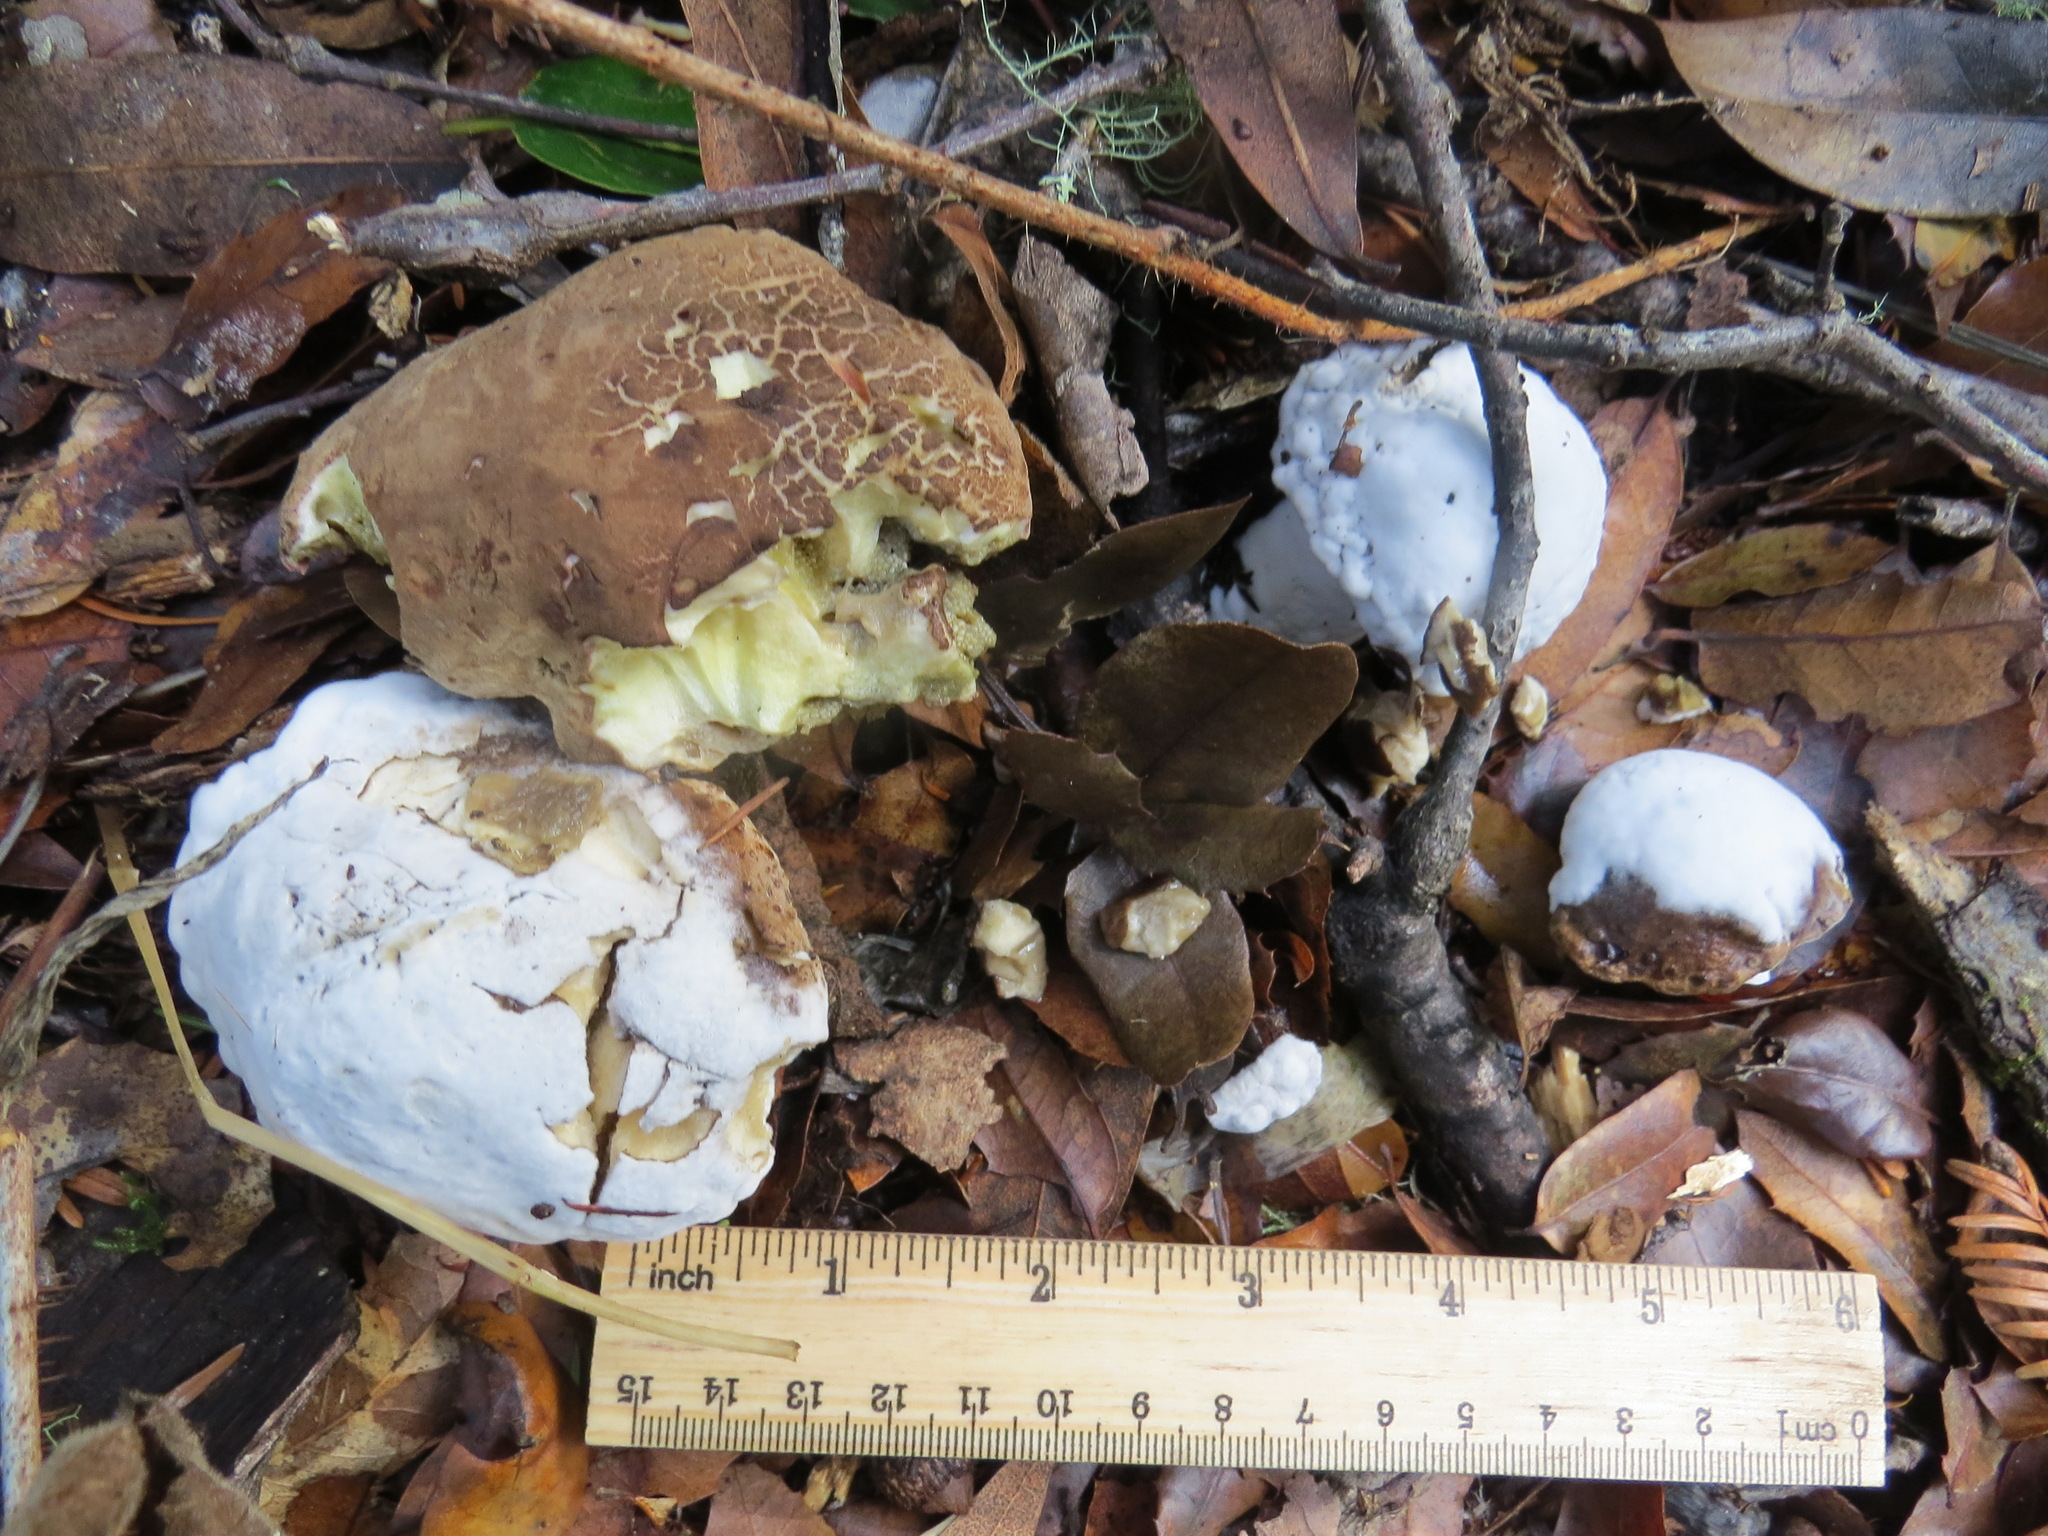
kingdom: Fungi
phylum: Ascomycota
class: Sordariomycetes
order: Hypocreales
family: Hypocreaceae
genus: Hypomyces
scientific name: Hypomyces microspermus
